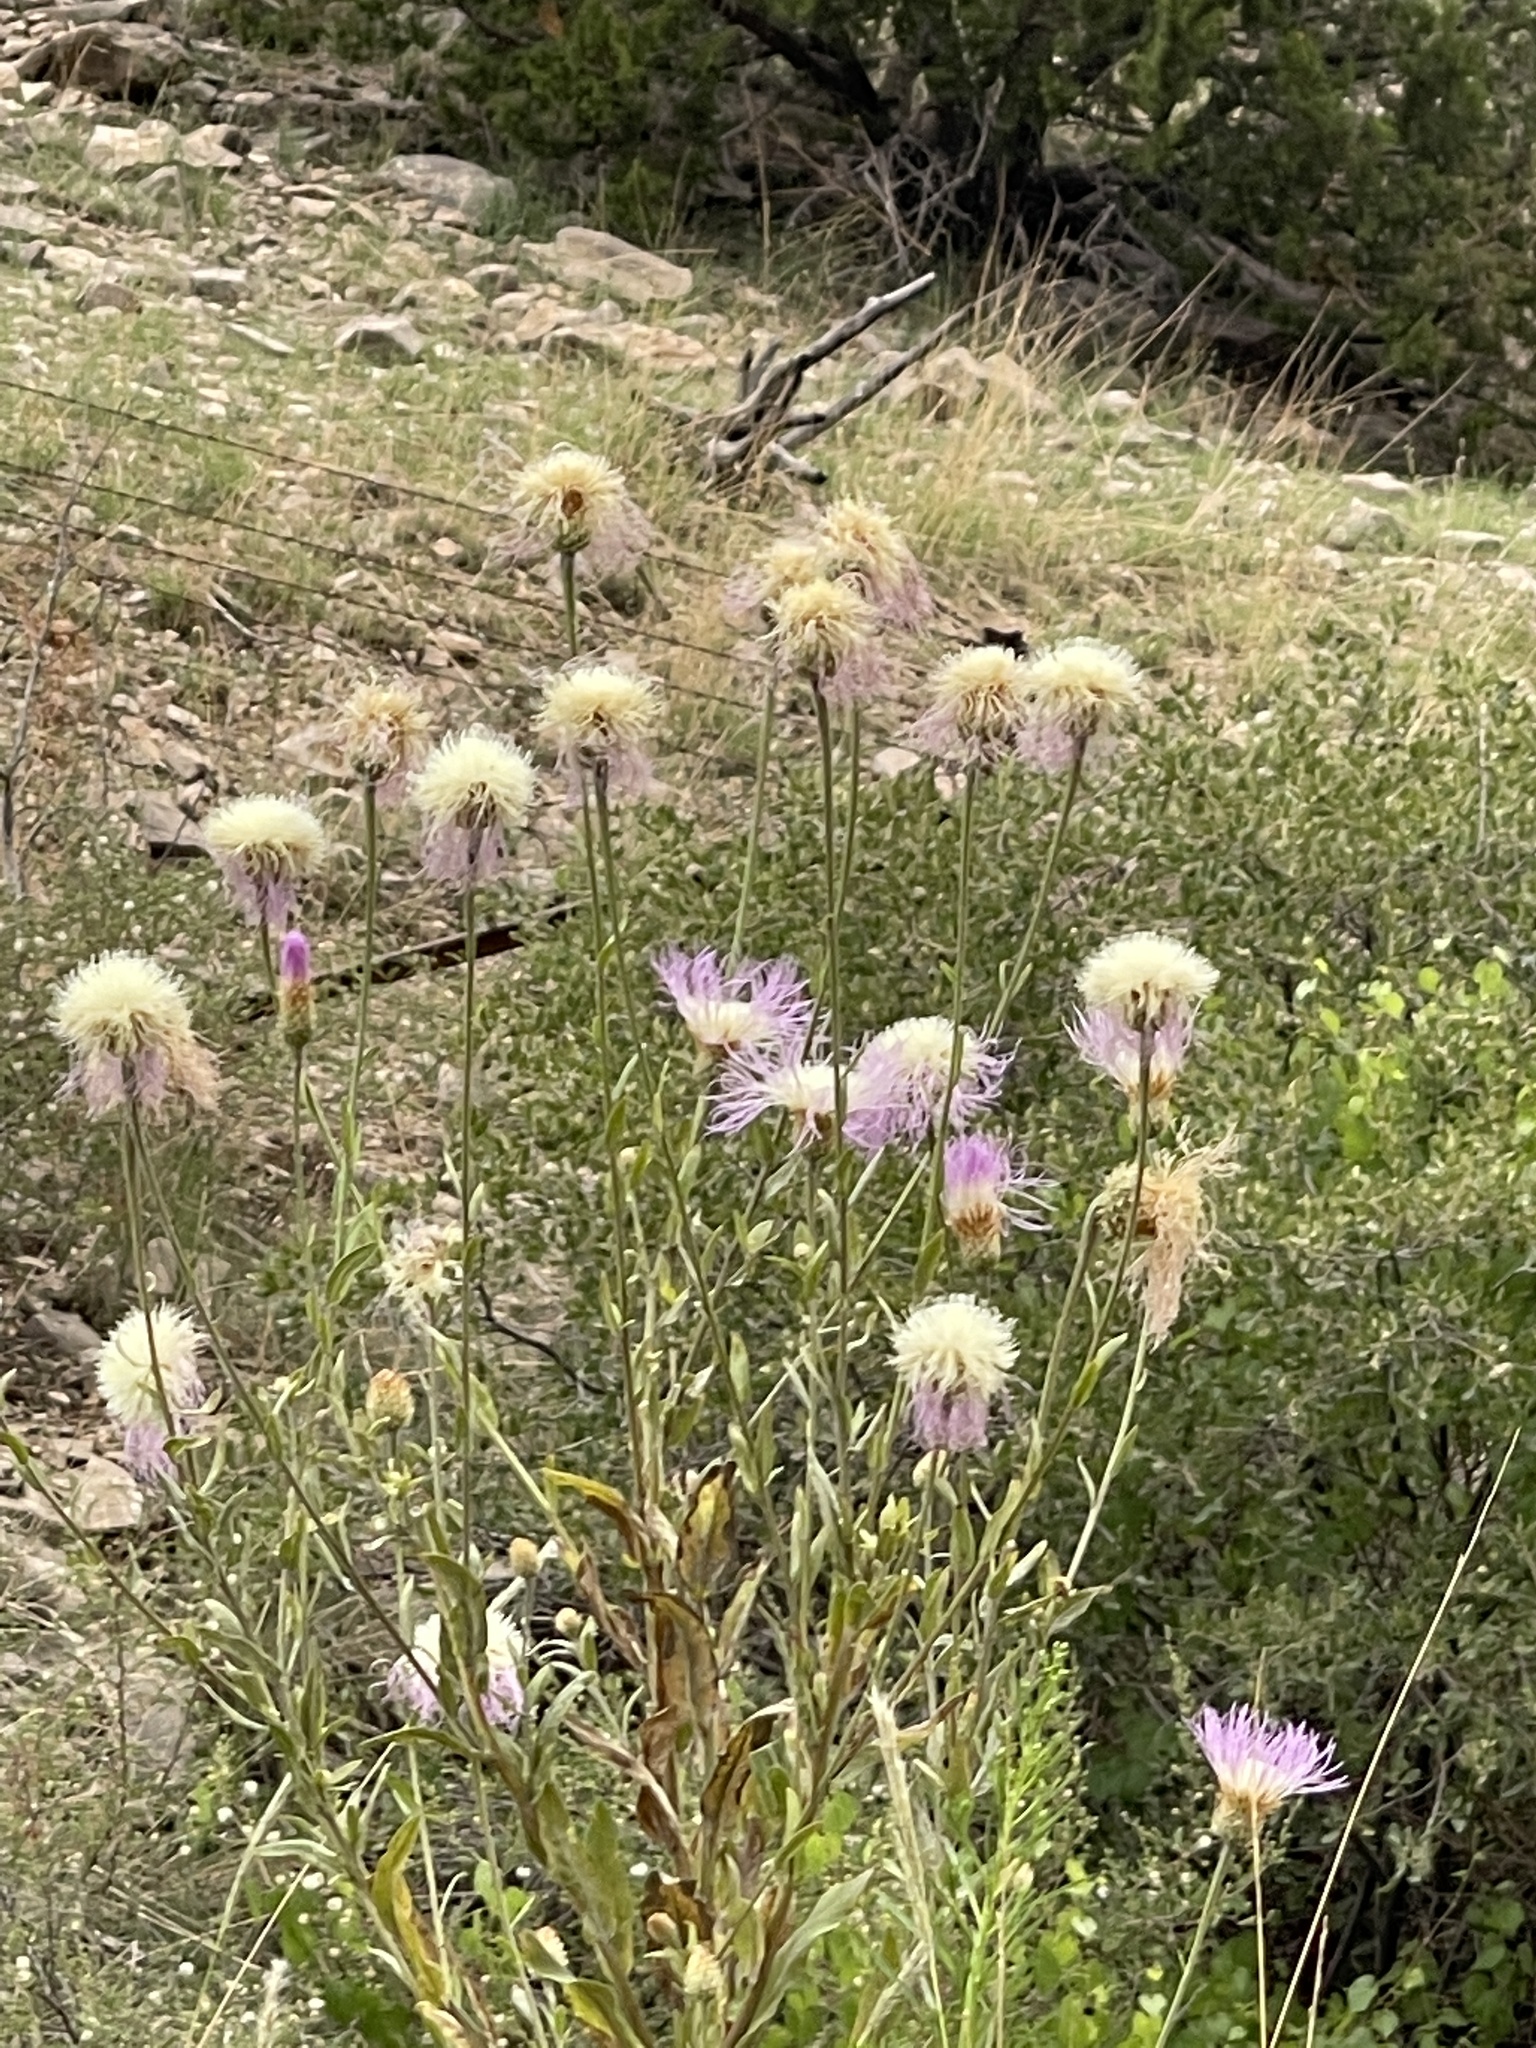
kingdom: Plantae
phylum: Tracheophyta
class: Magnoliopsida
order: Asterales
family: Asteraceae
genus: Plectocephalus
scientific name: Plectocephalus americanus
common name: American basket-flower
